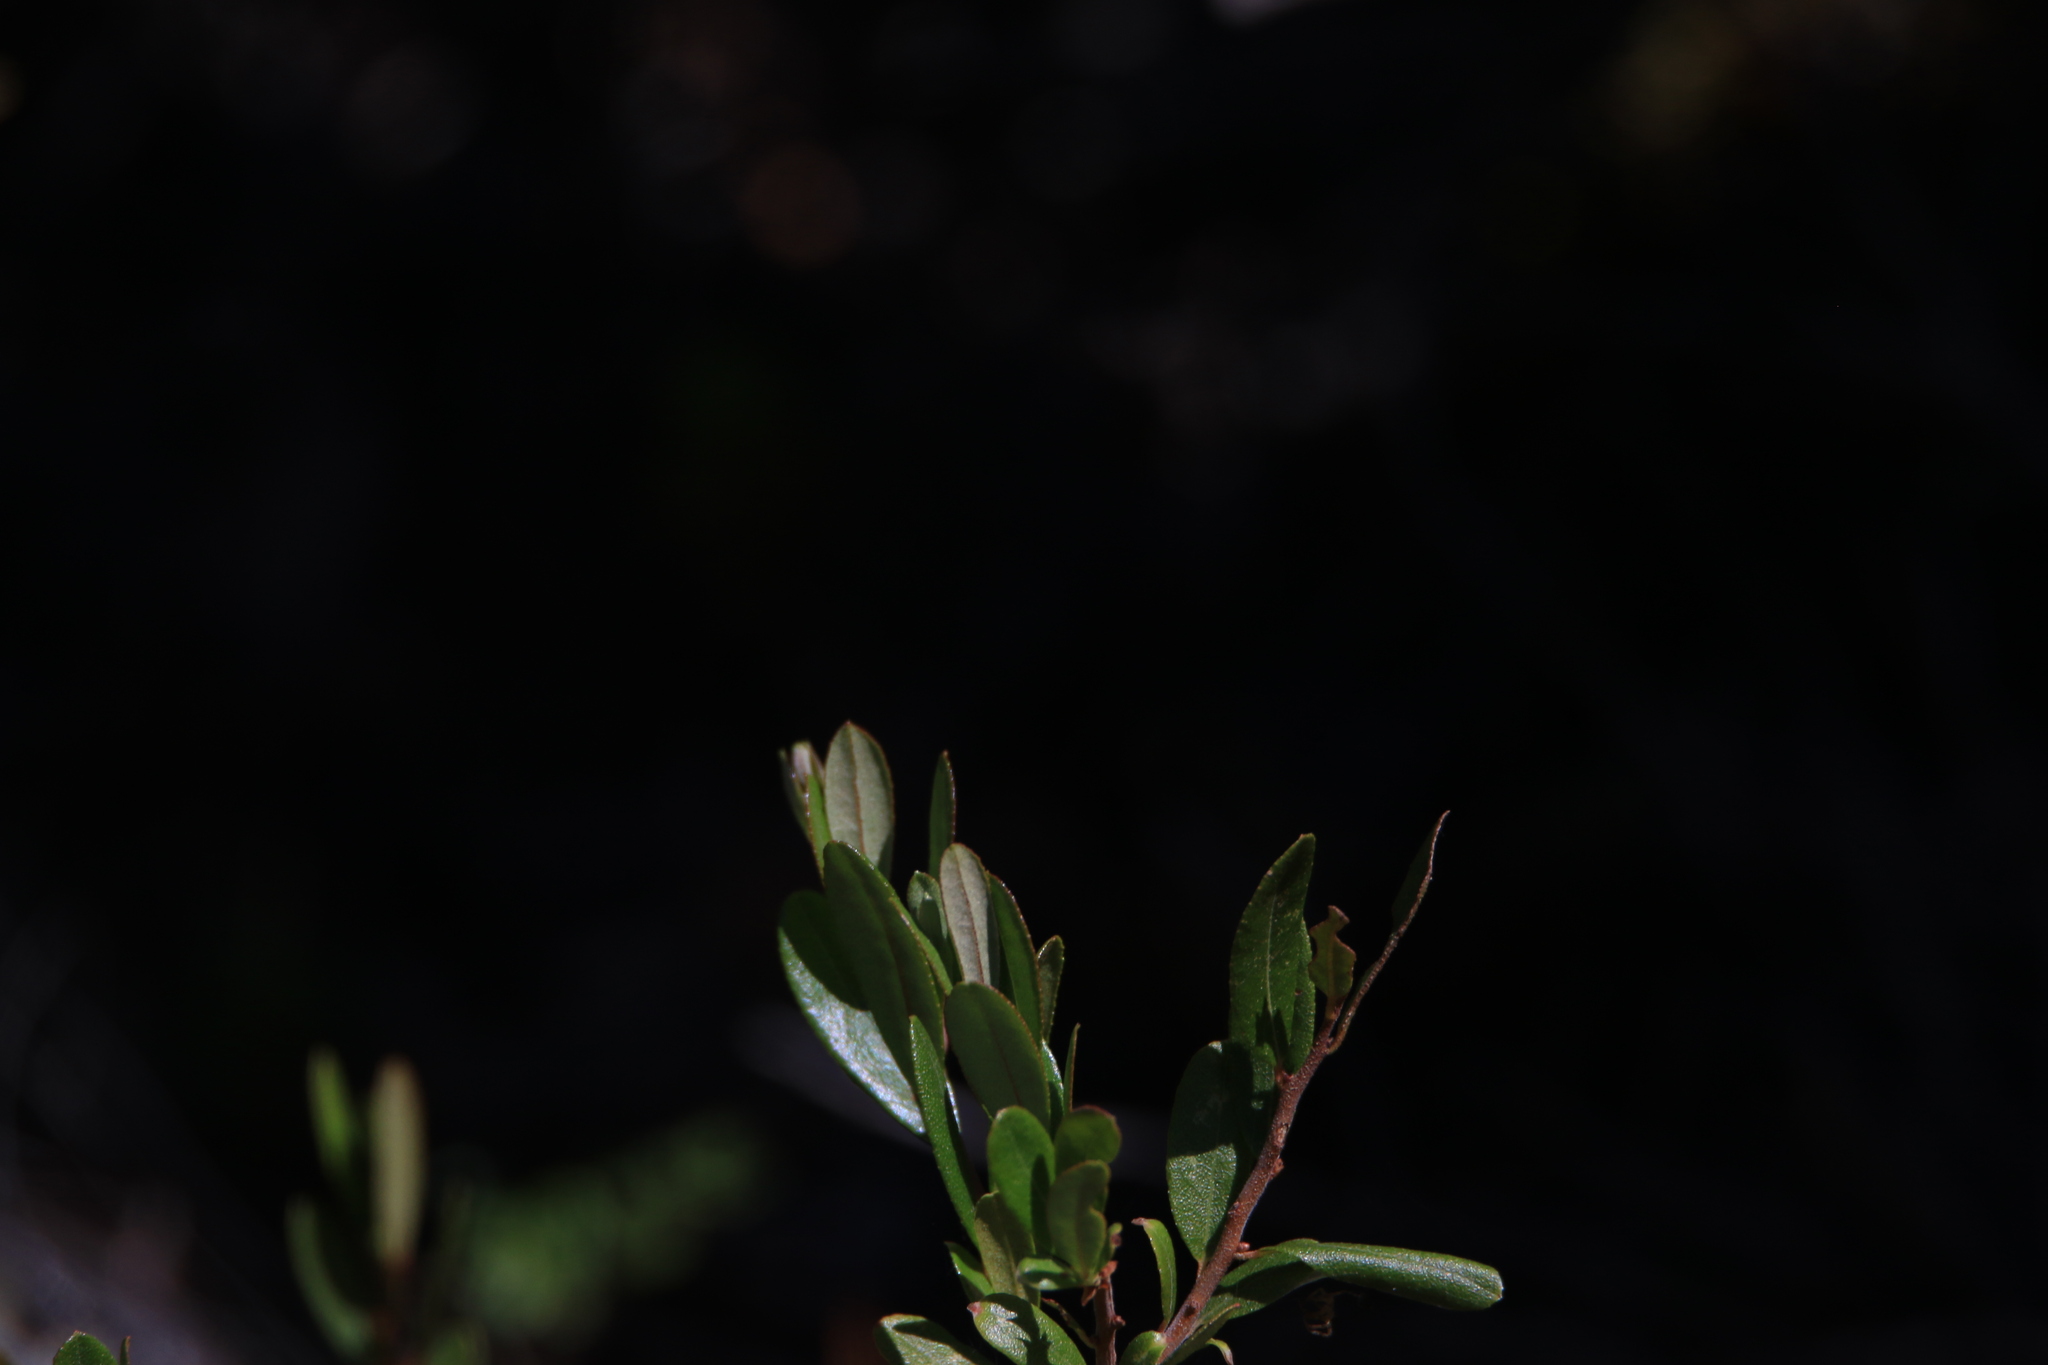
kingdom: Plantae
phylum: Tracheophyta
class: Magnoliopsida
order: Ericales
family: Ericaceae
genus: Chamaedaphne
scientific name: Chamaedaphne calyculata
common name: Leatherleaf
